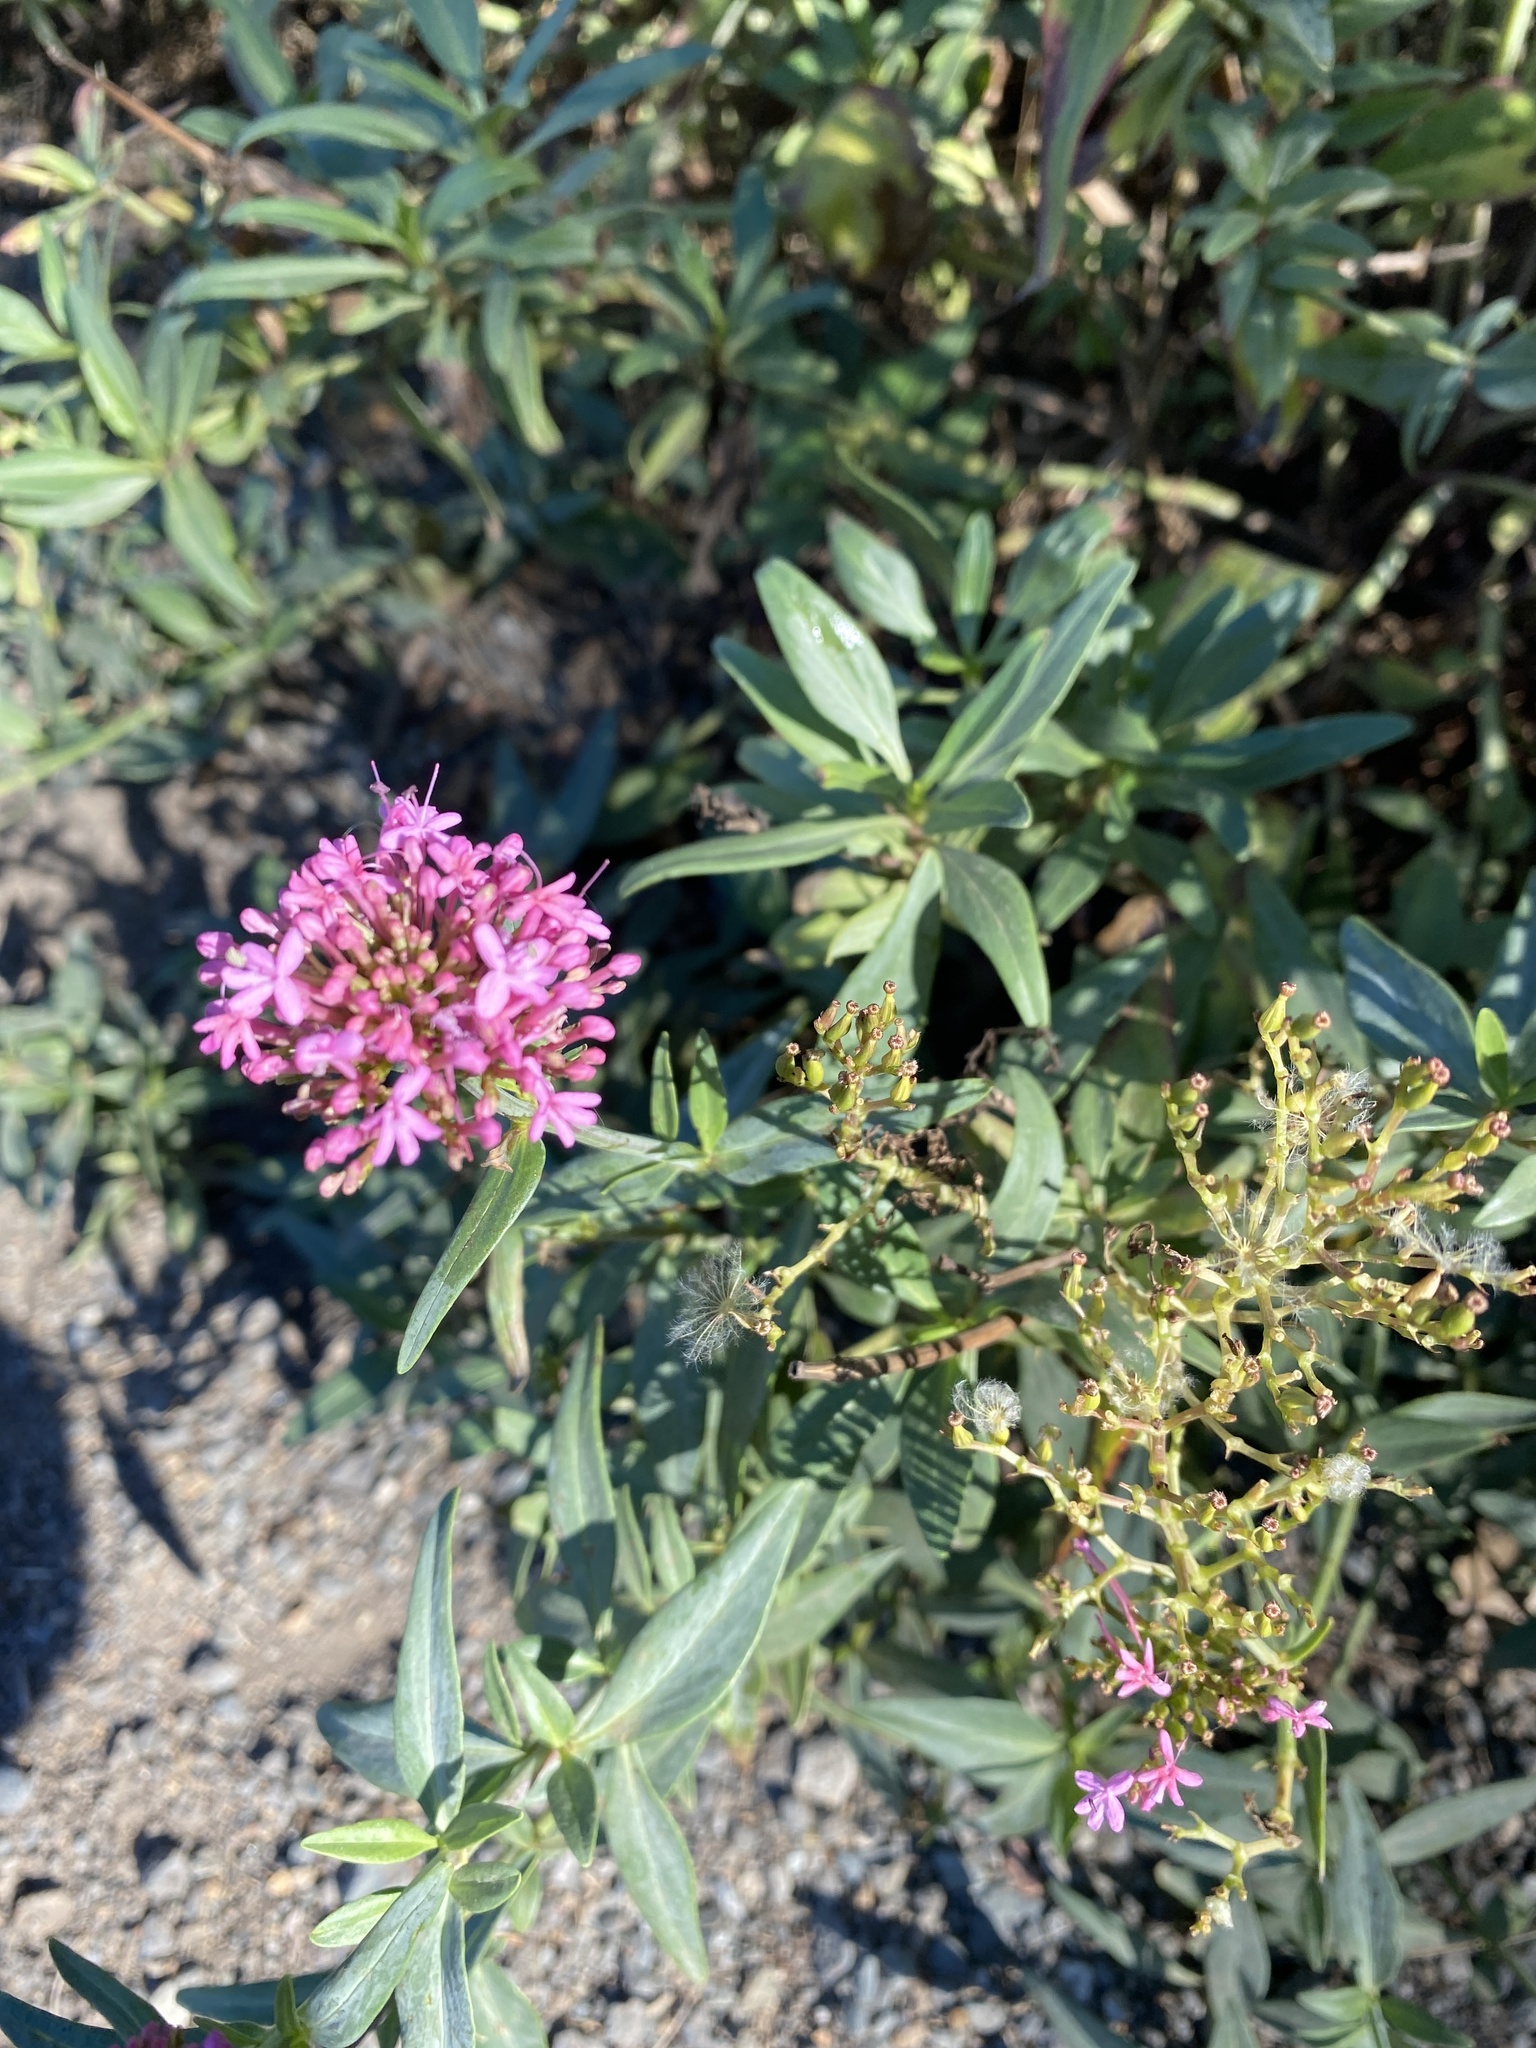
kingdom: Plantae
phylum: Tracheophyta
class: Magnoliopsida
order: Dipsacales
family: Caprifoliaceae
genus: Centranthus
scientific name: Centranthus ruber
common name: Red valerian
